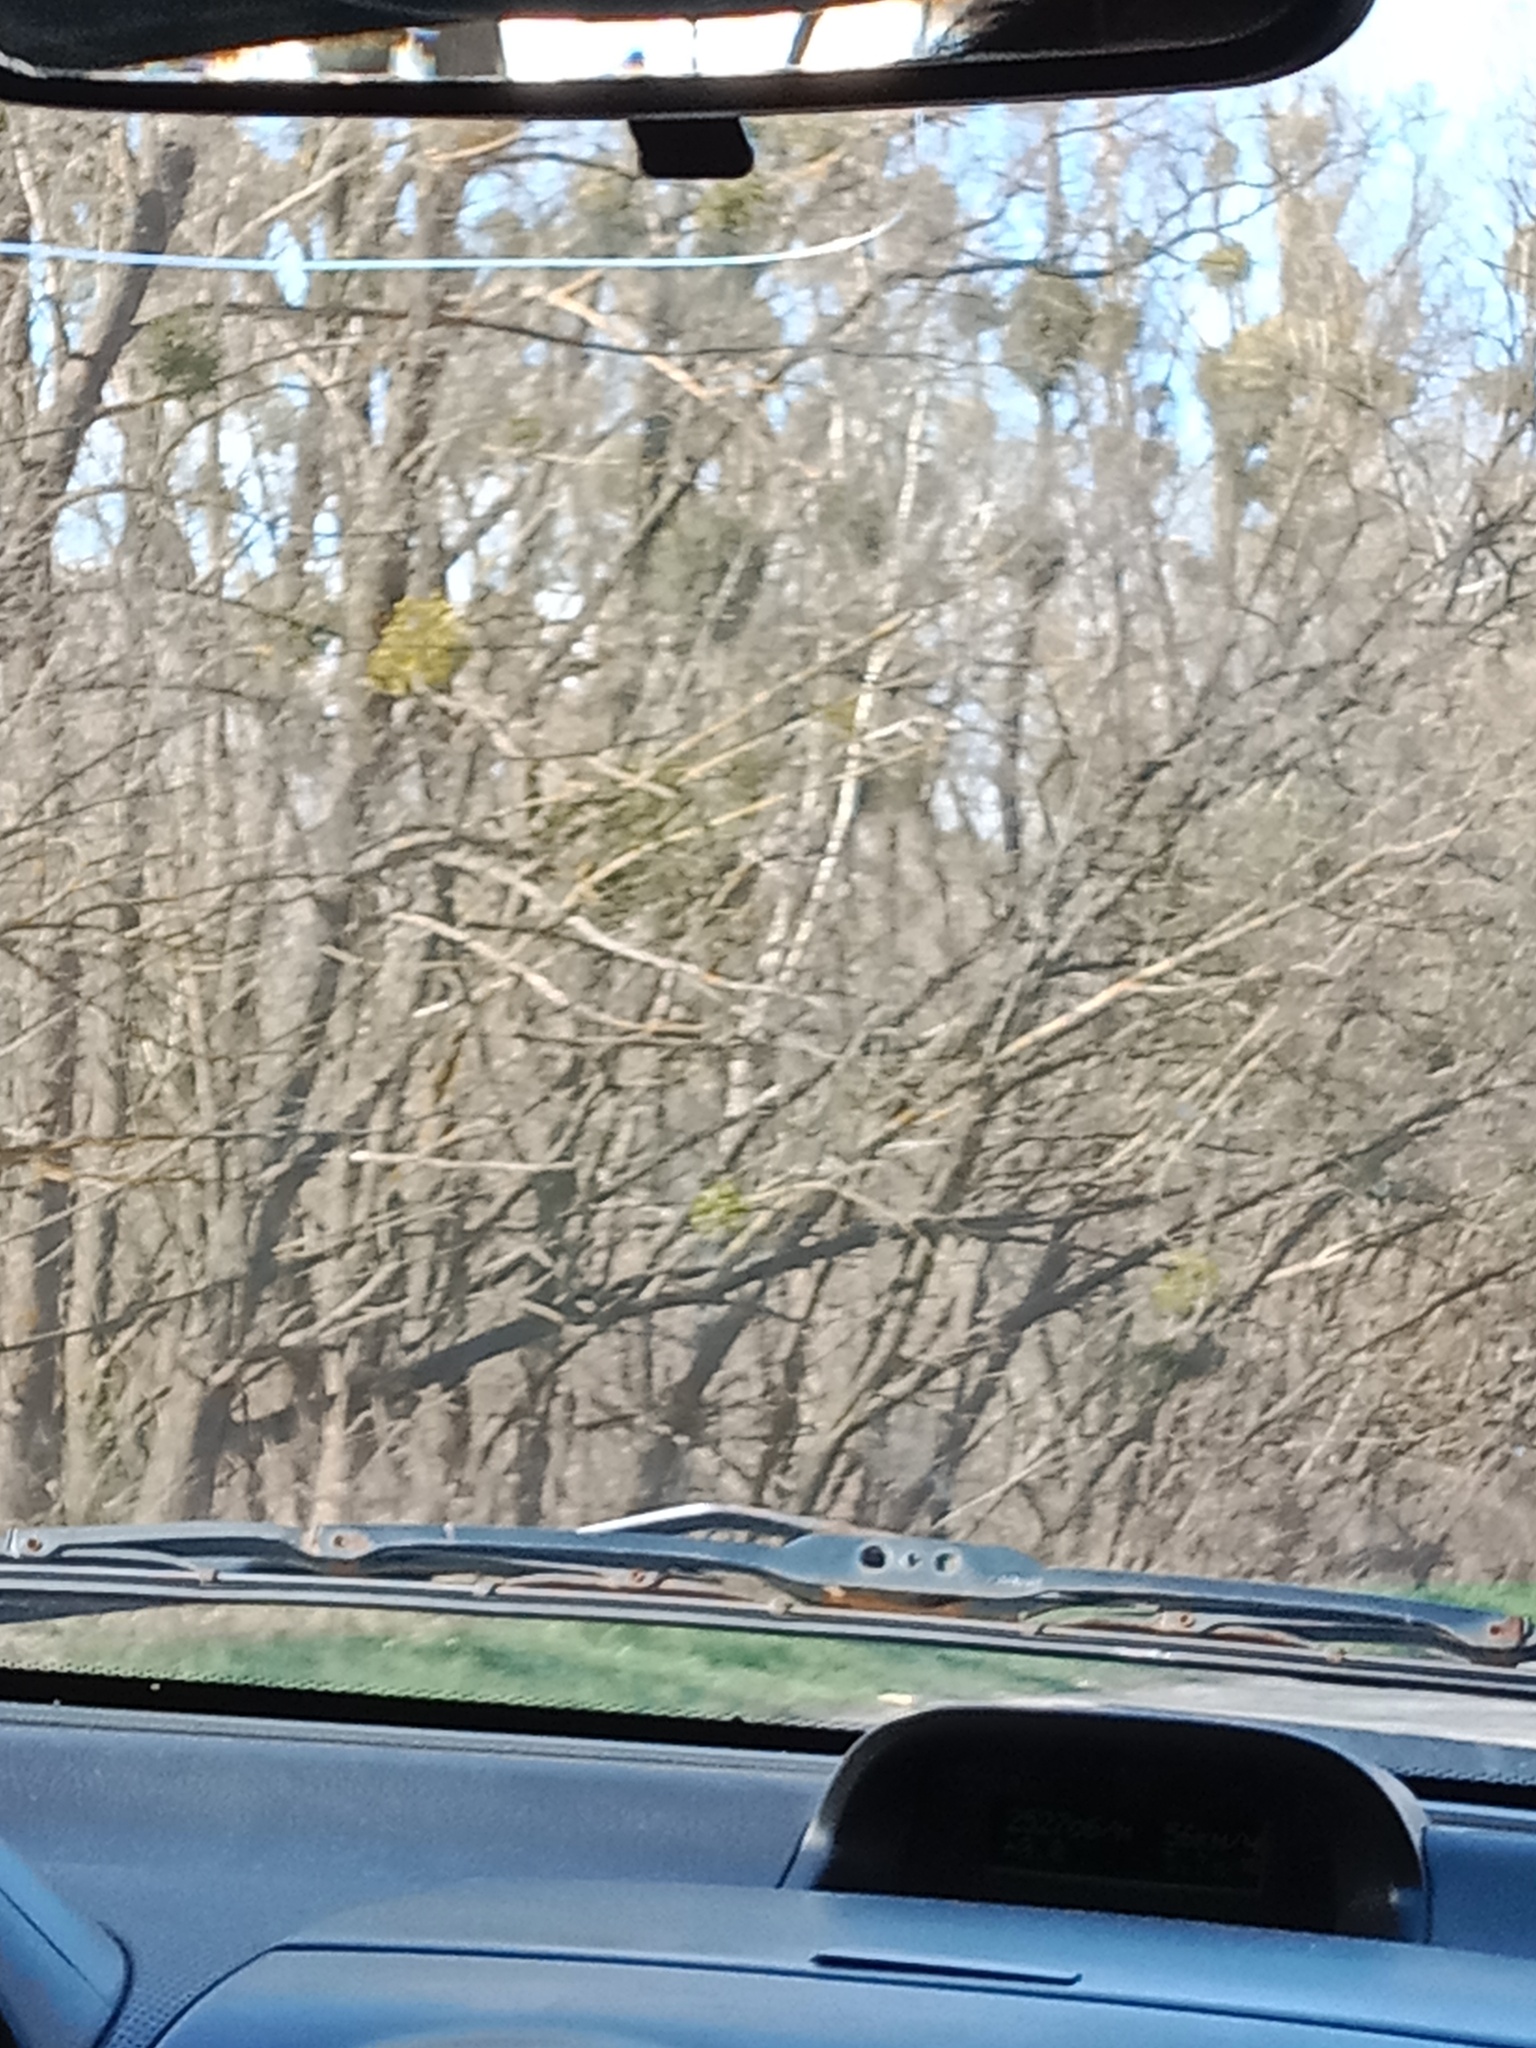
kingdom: Plantae
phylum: Tracheophyta
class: Magnoliopsida
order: Santalales
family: Viscaceae
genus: Viscum
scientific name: Viscum album
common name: Mistletoe
